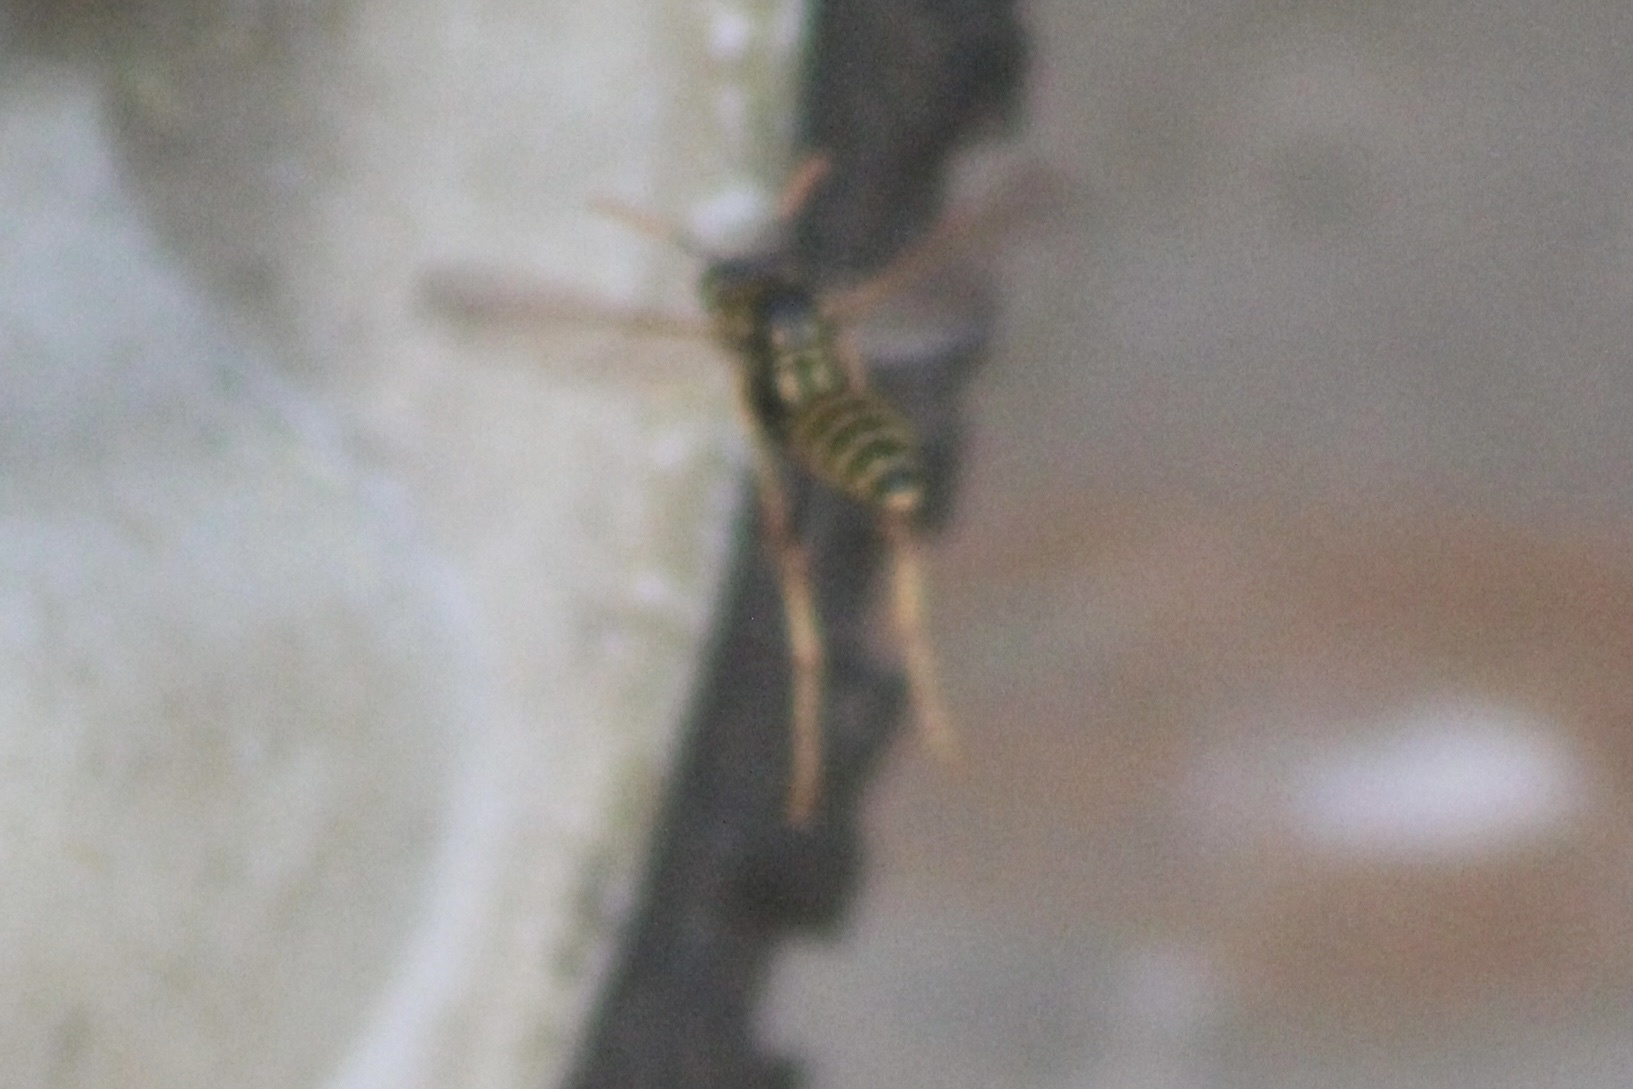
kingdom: Animalia
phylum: Arthropoda
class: Insecta
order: Hymenoptera
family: Eumenidae
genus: Polistes
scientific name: Polistes dominula
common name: Paper wasp
